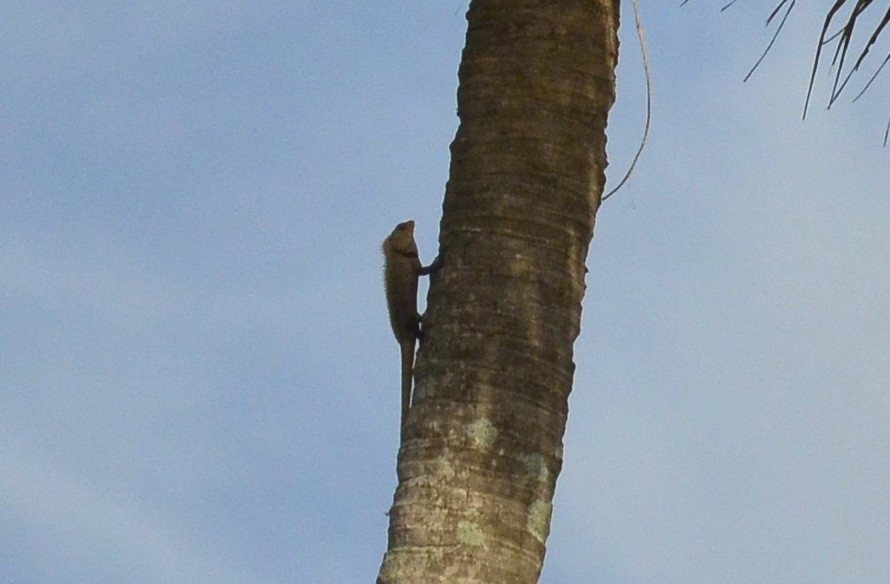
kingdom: Animalia
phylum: Chordata
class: Squamata
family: Agamidae
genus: Calotes
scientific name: Calotes versicolor
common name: Oriental garden lizard
